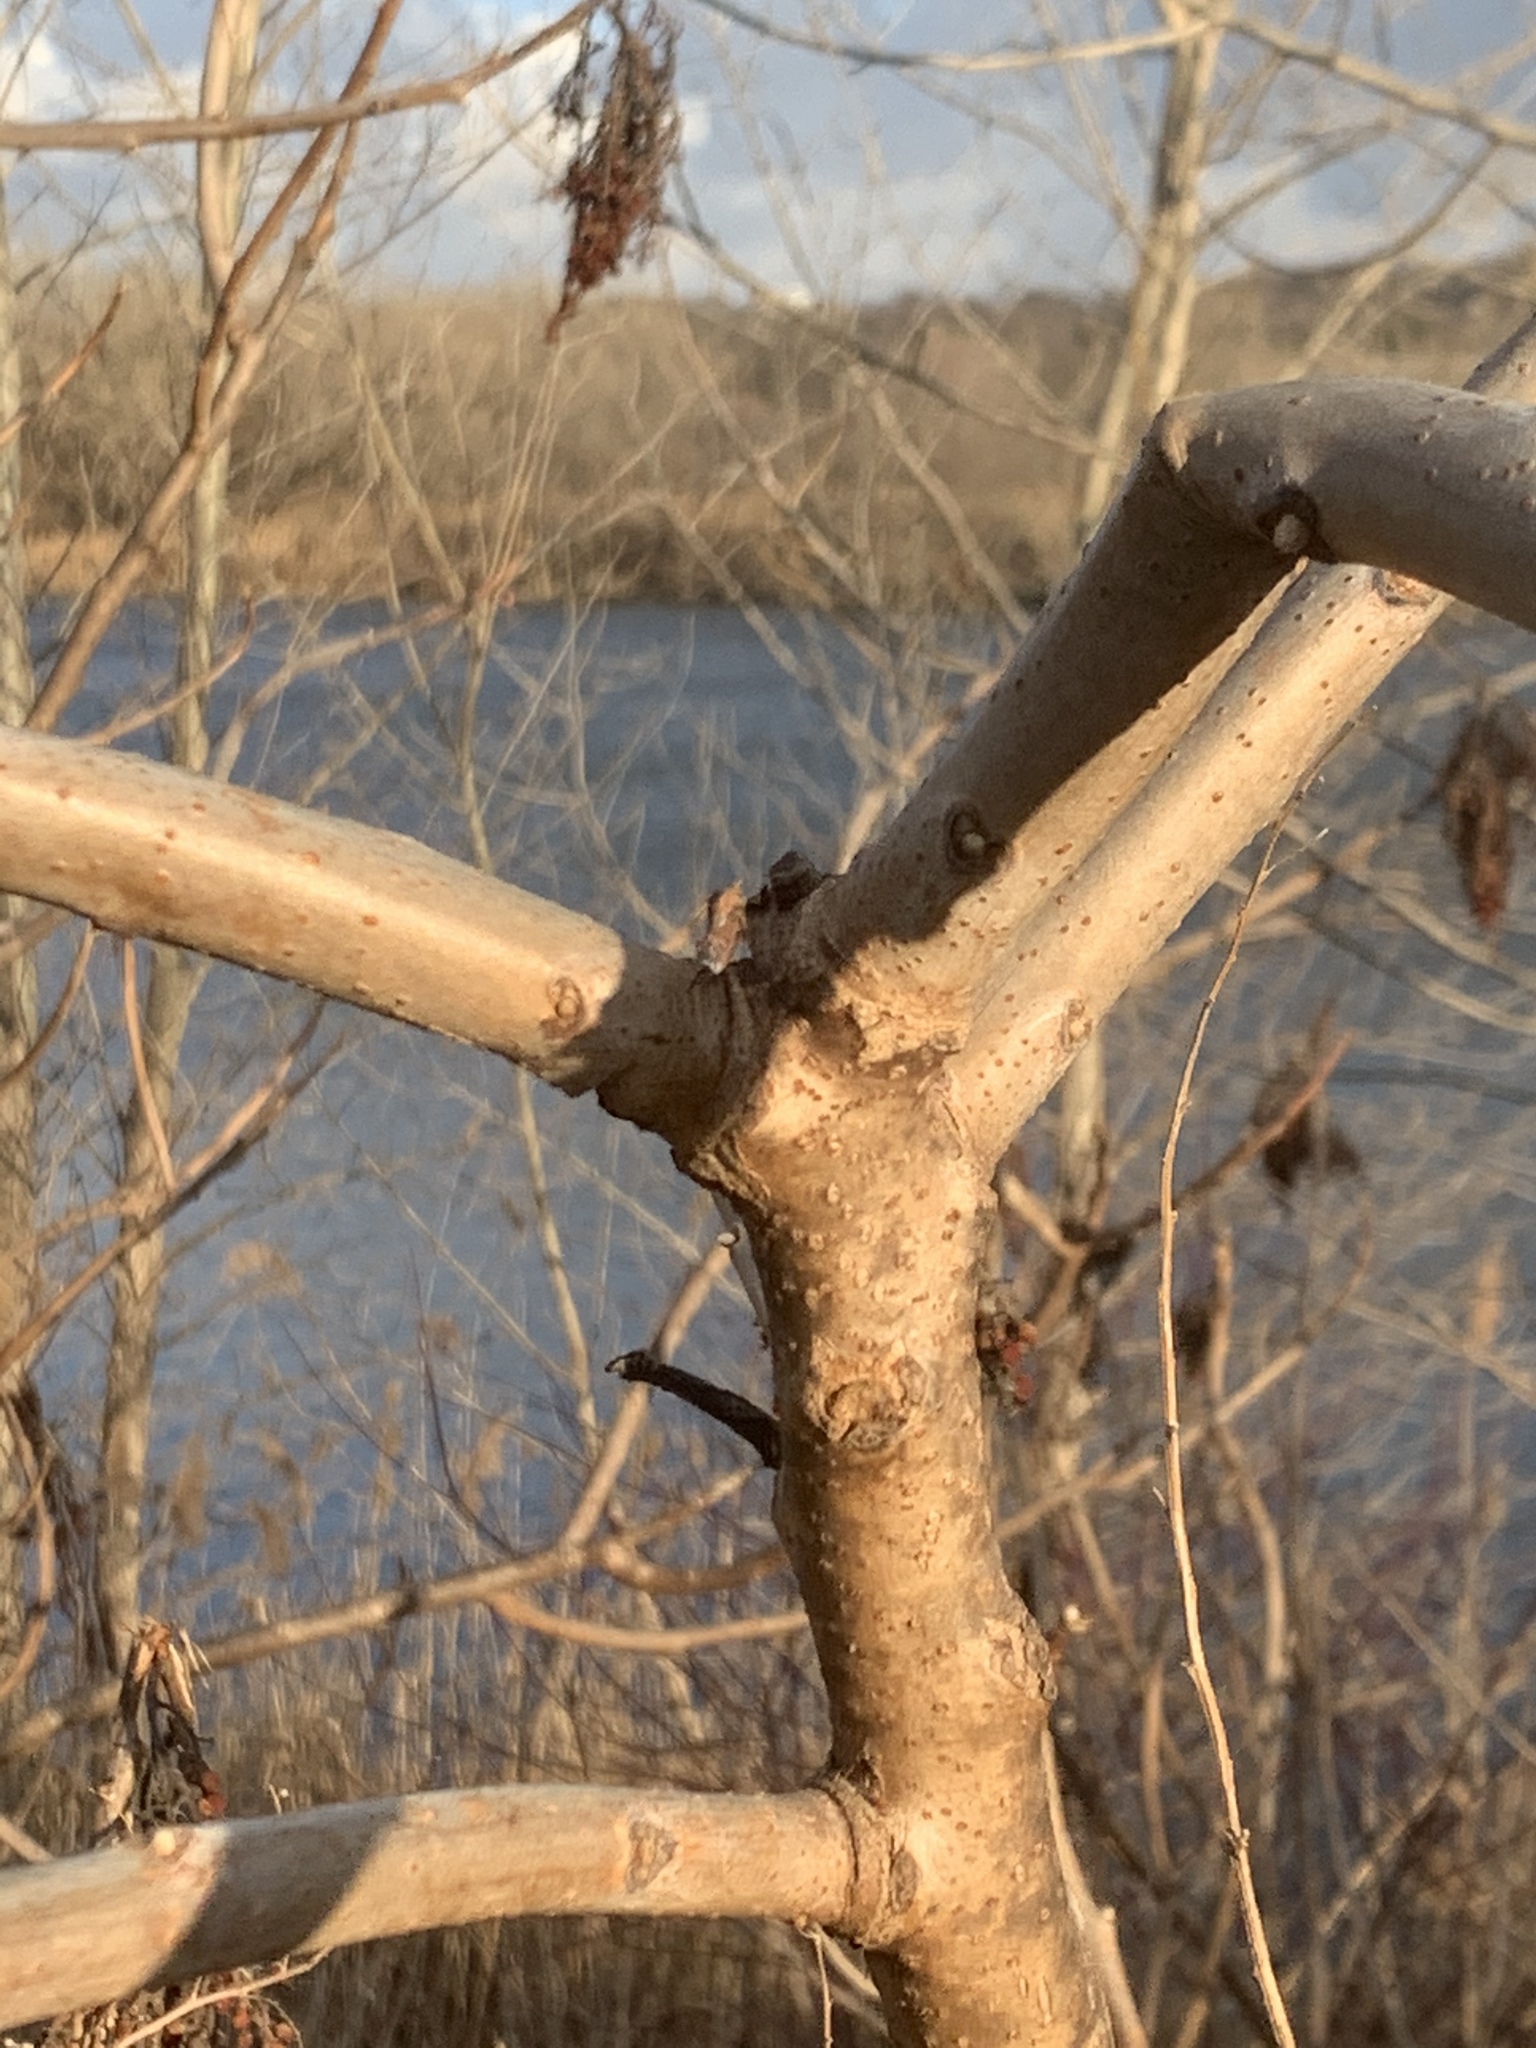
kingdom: Plantae
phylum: Tracheophyta
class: Magnoliopsida
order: Sapindales
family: Anacardiaceae
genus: Rhus
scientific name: Rhus glabra
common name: Scarlet sumac
